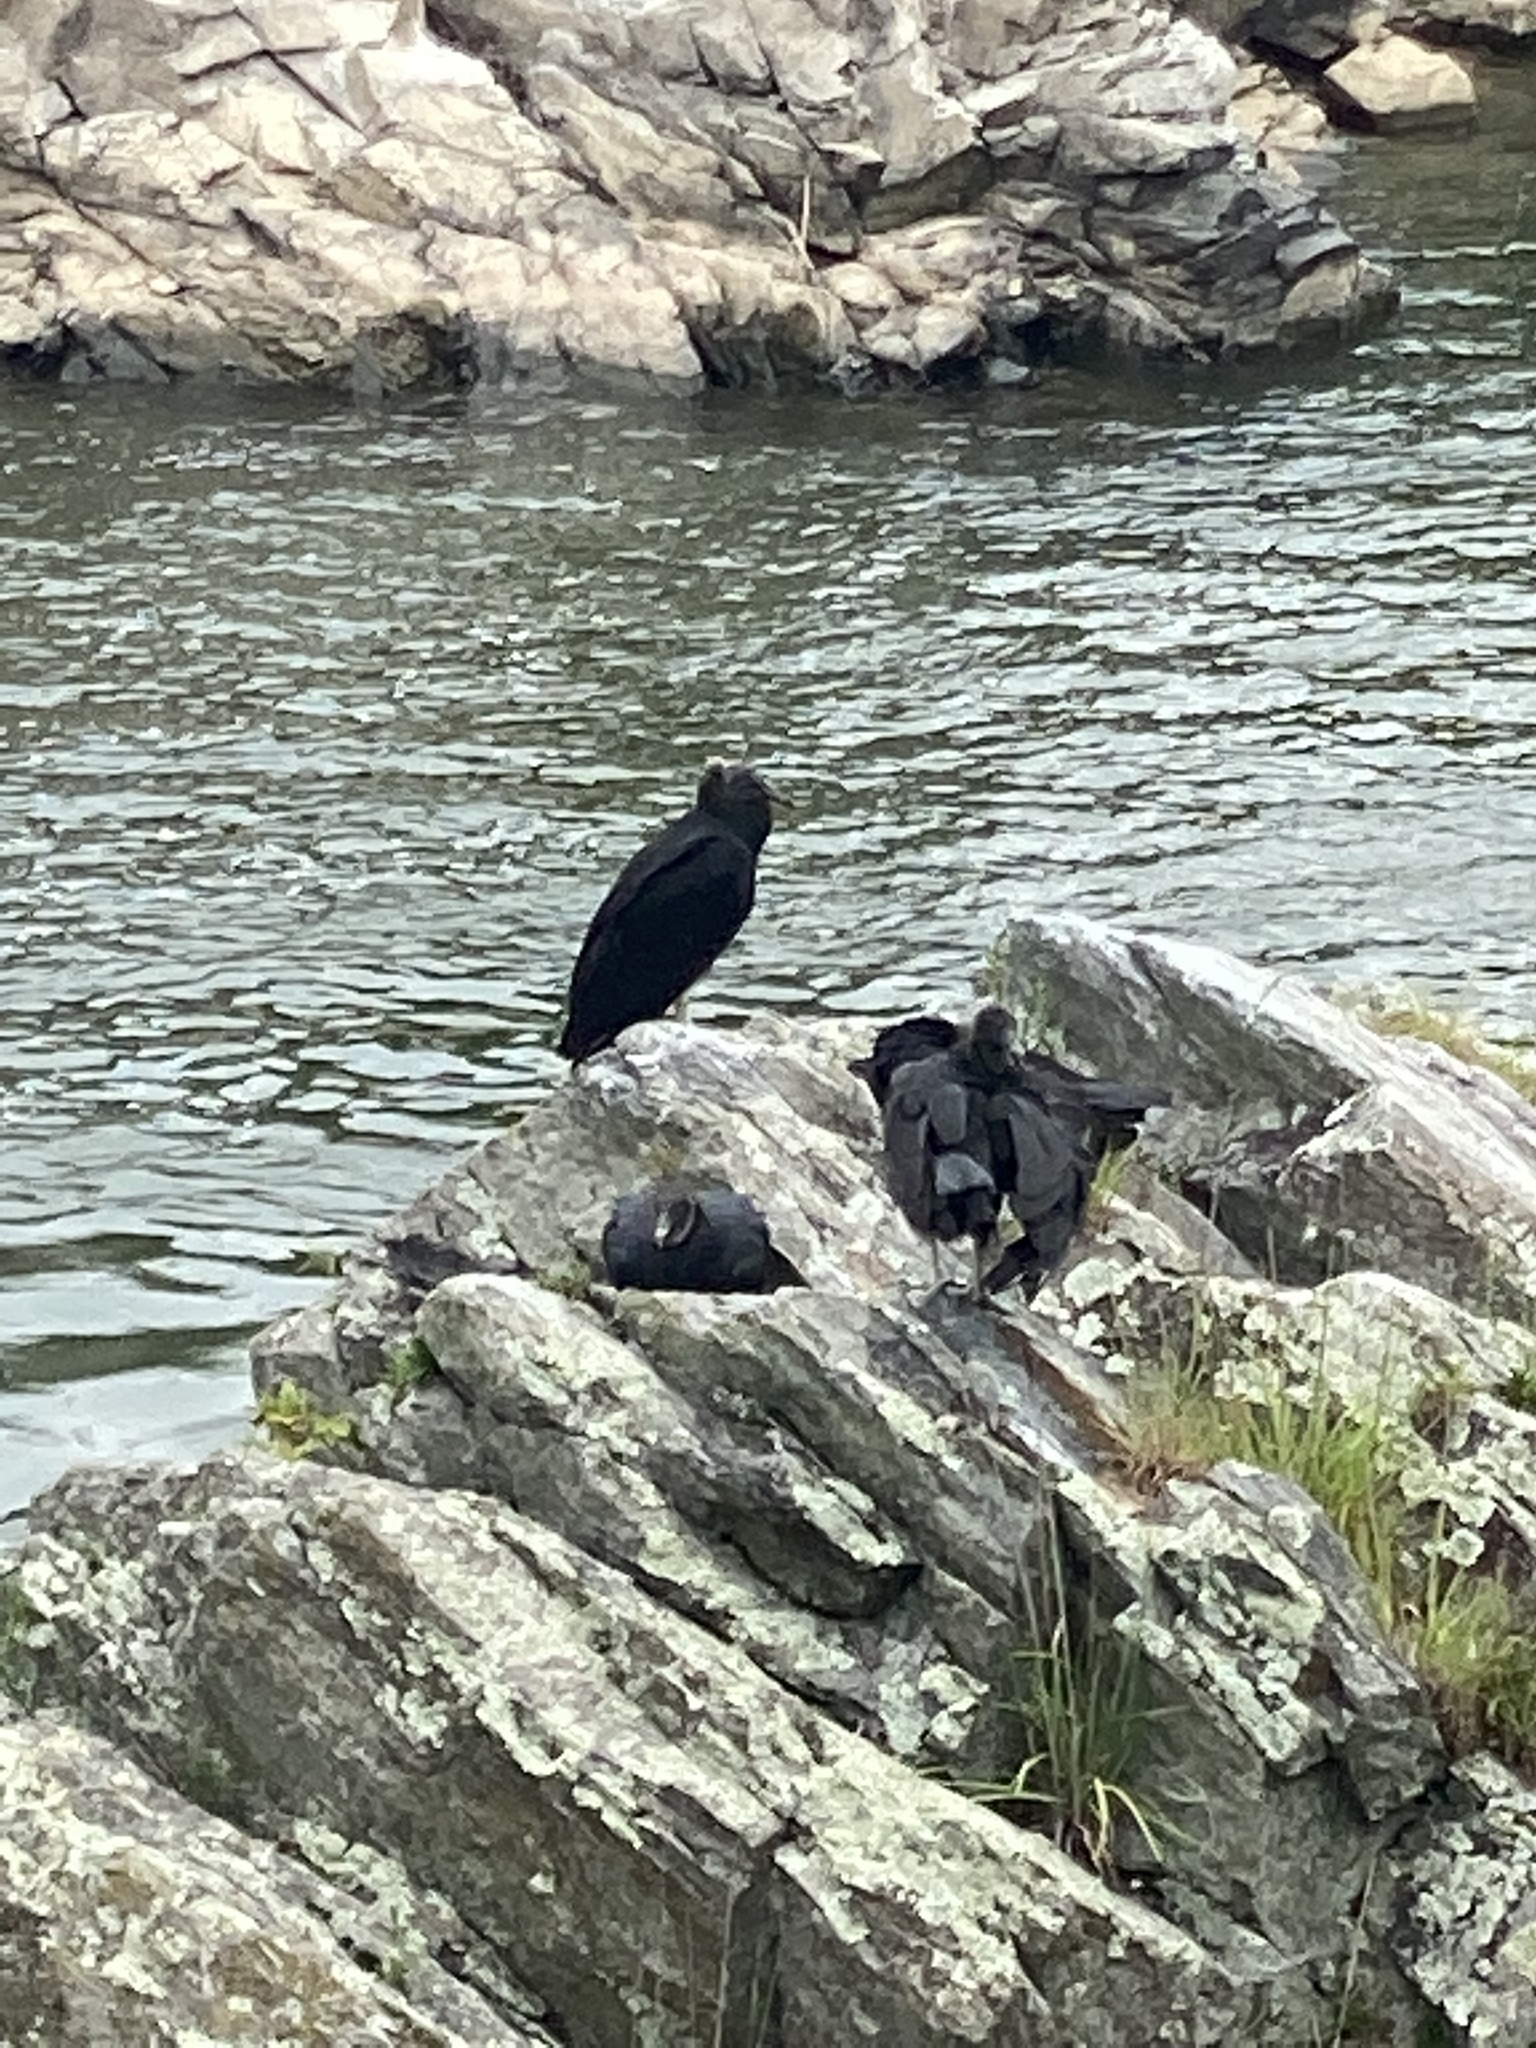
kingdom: Animalia
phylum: Chordata
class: Aves
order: Accipitriformes
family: Cathartidae
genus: Coragyps
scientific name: Coragyps atratus
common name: Black vulture
